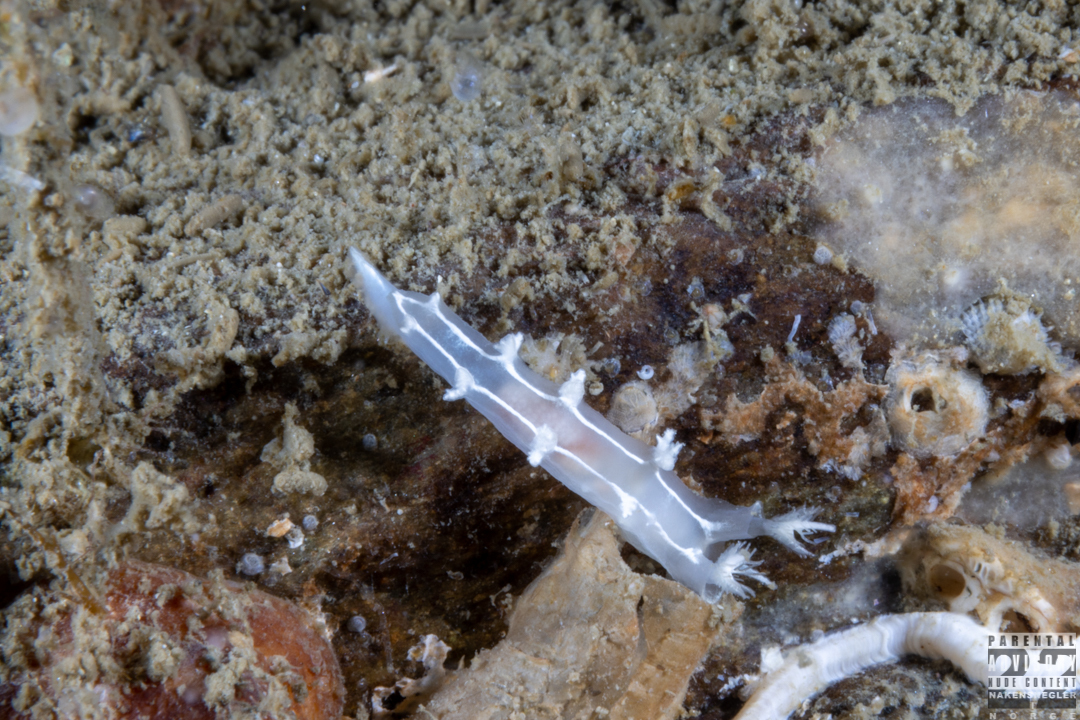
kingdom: Animalia
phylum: Mollusca
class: Gastropoda
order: Nudibranchia
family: Tritoniidae
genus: Duvaucelia
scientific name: Duvaucelia lineata
